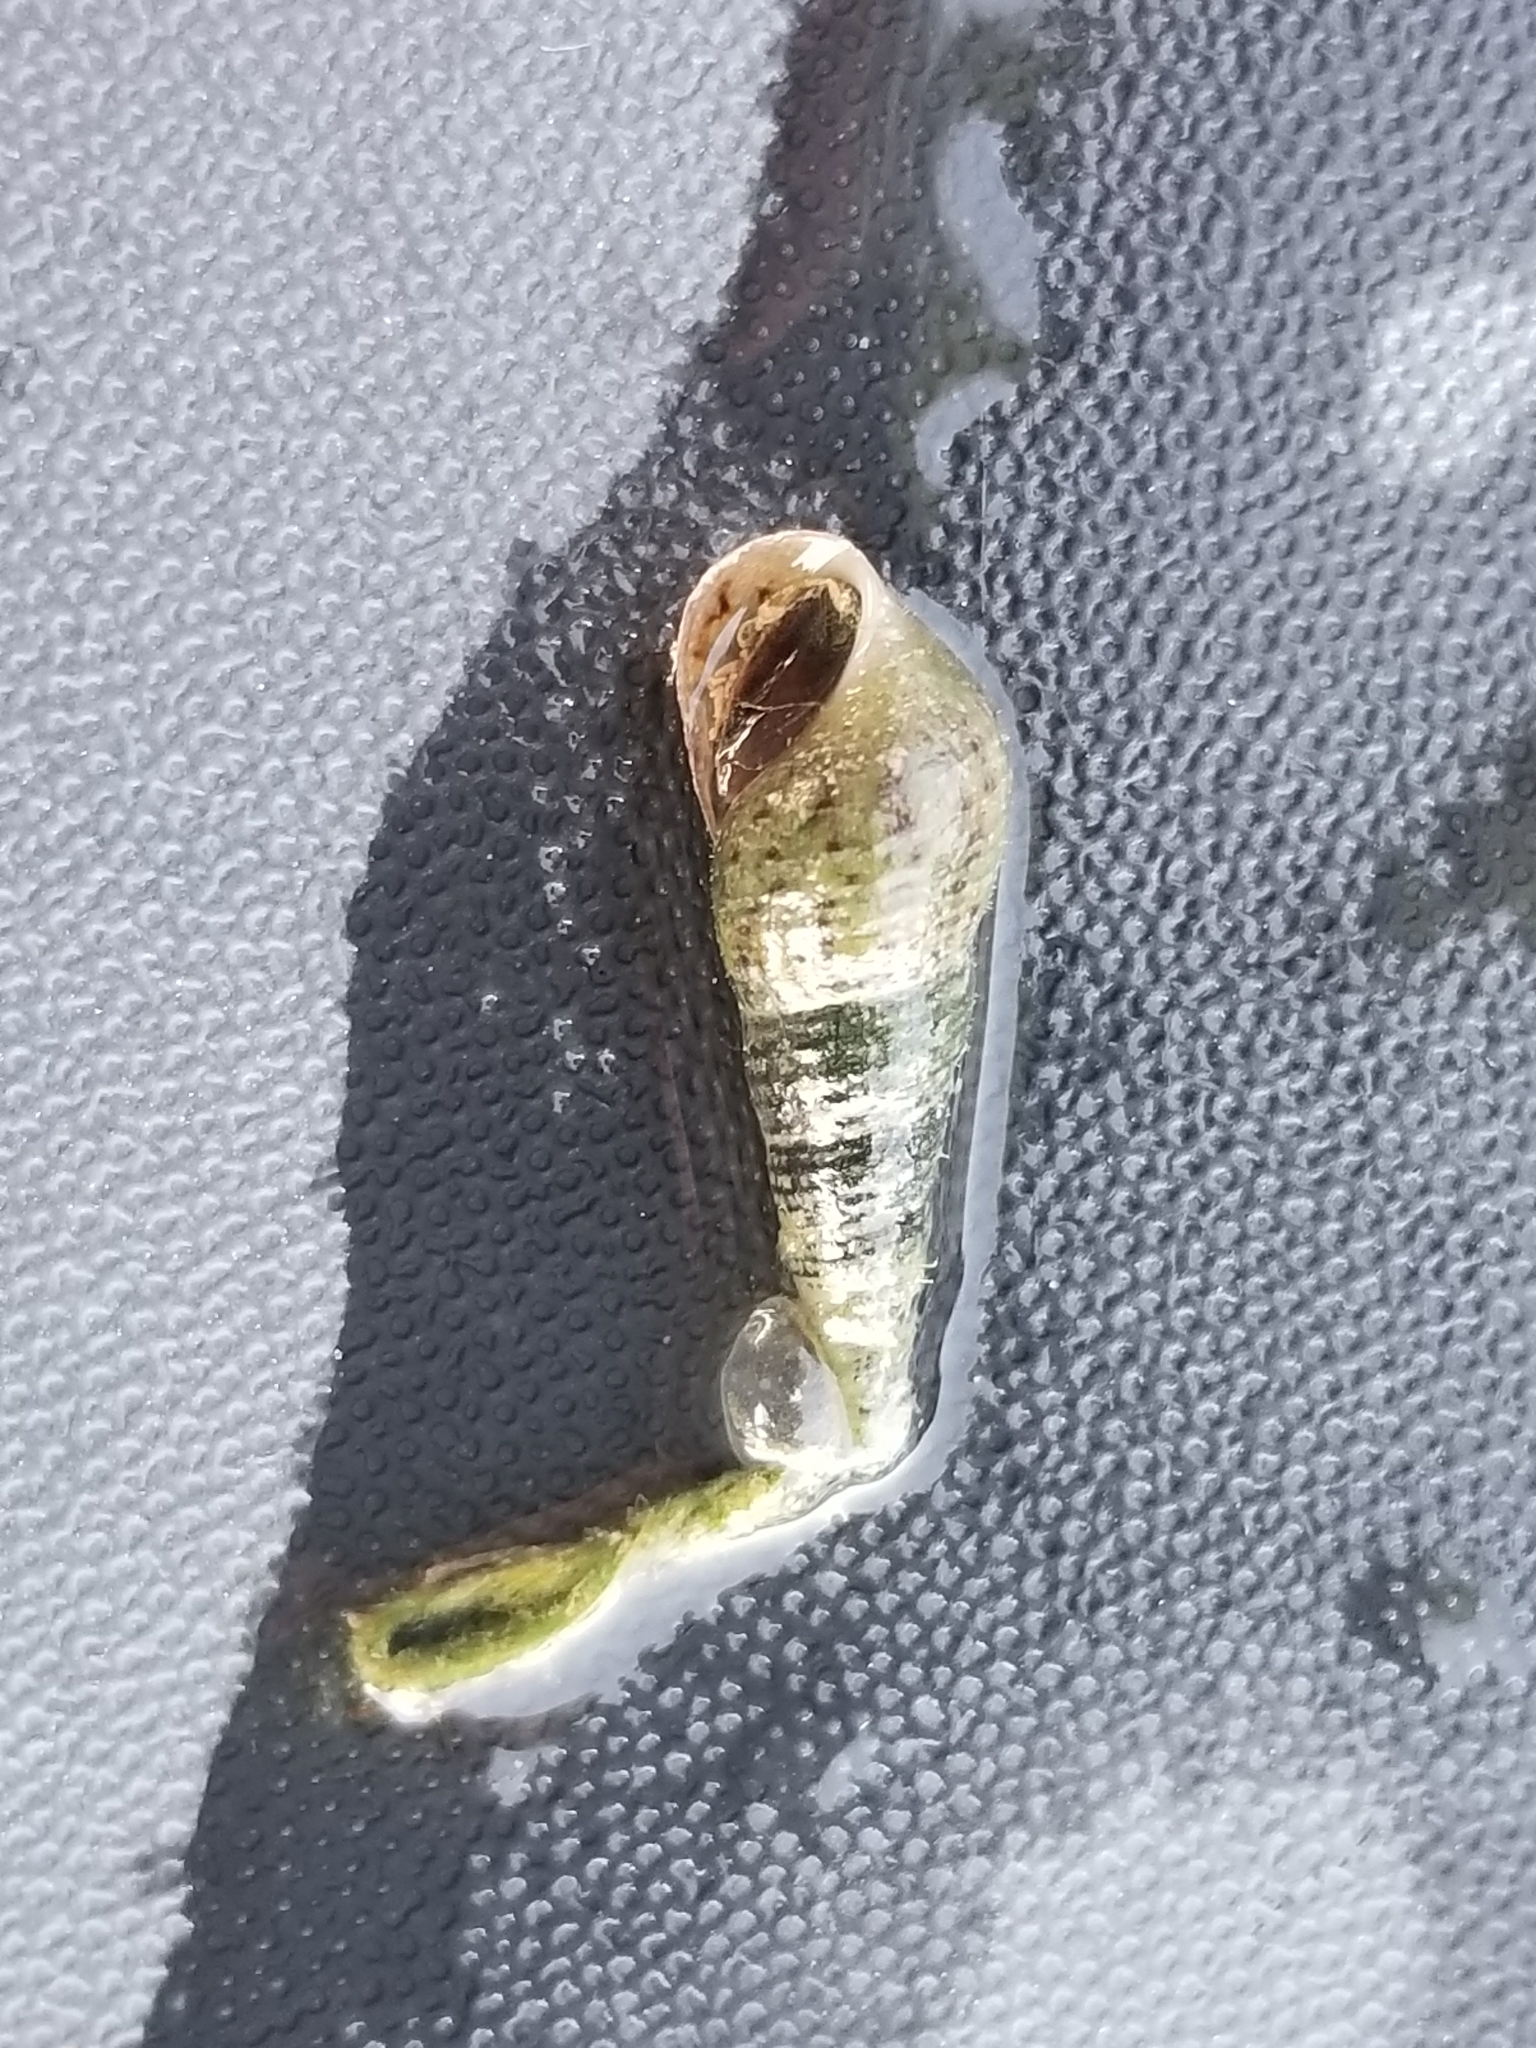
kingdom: Animalia
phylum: Mollusca
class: Gastropoda
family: Thiaridae
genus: Melanoides
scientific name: Melanoides tuberculata
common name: Red-rim melania
